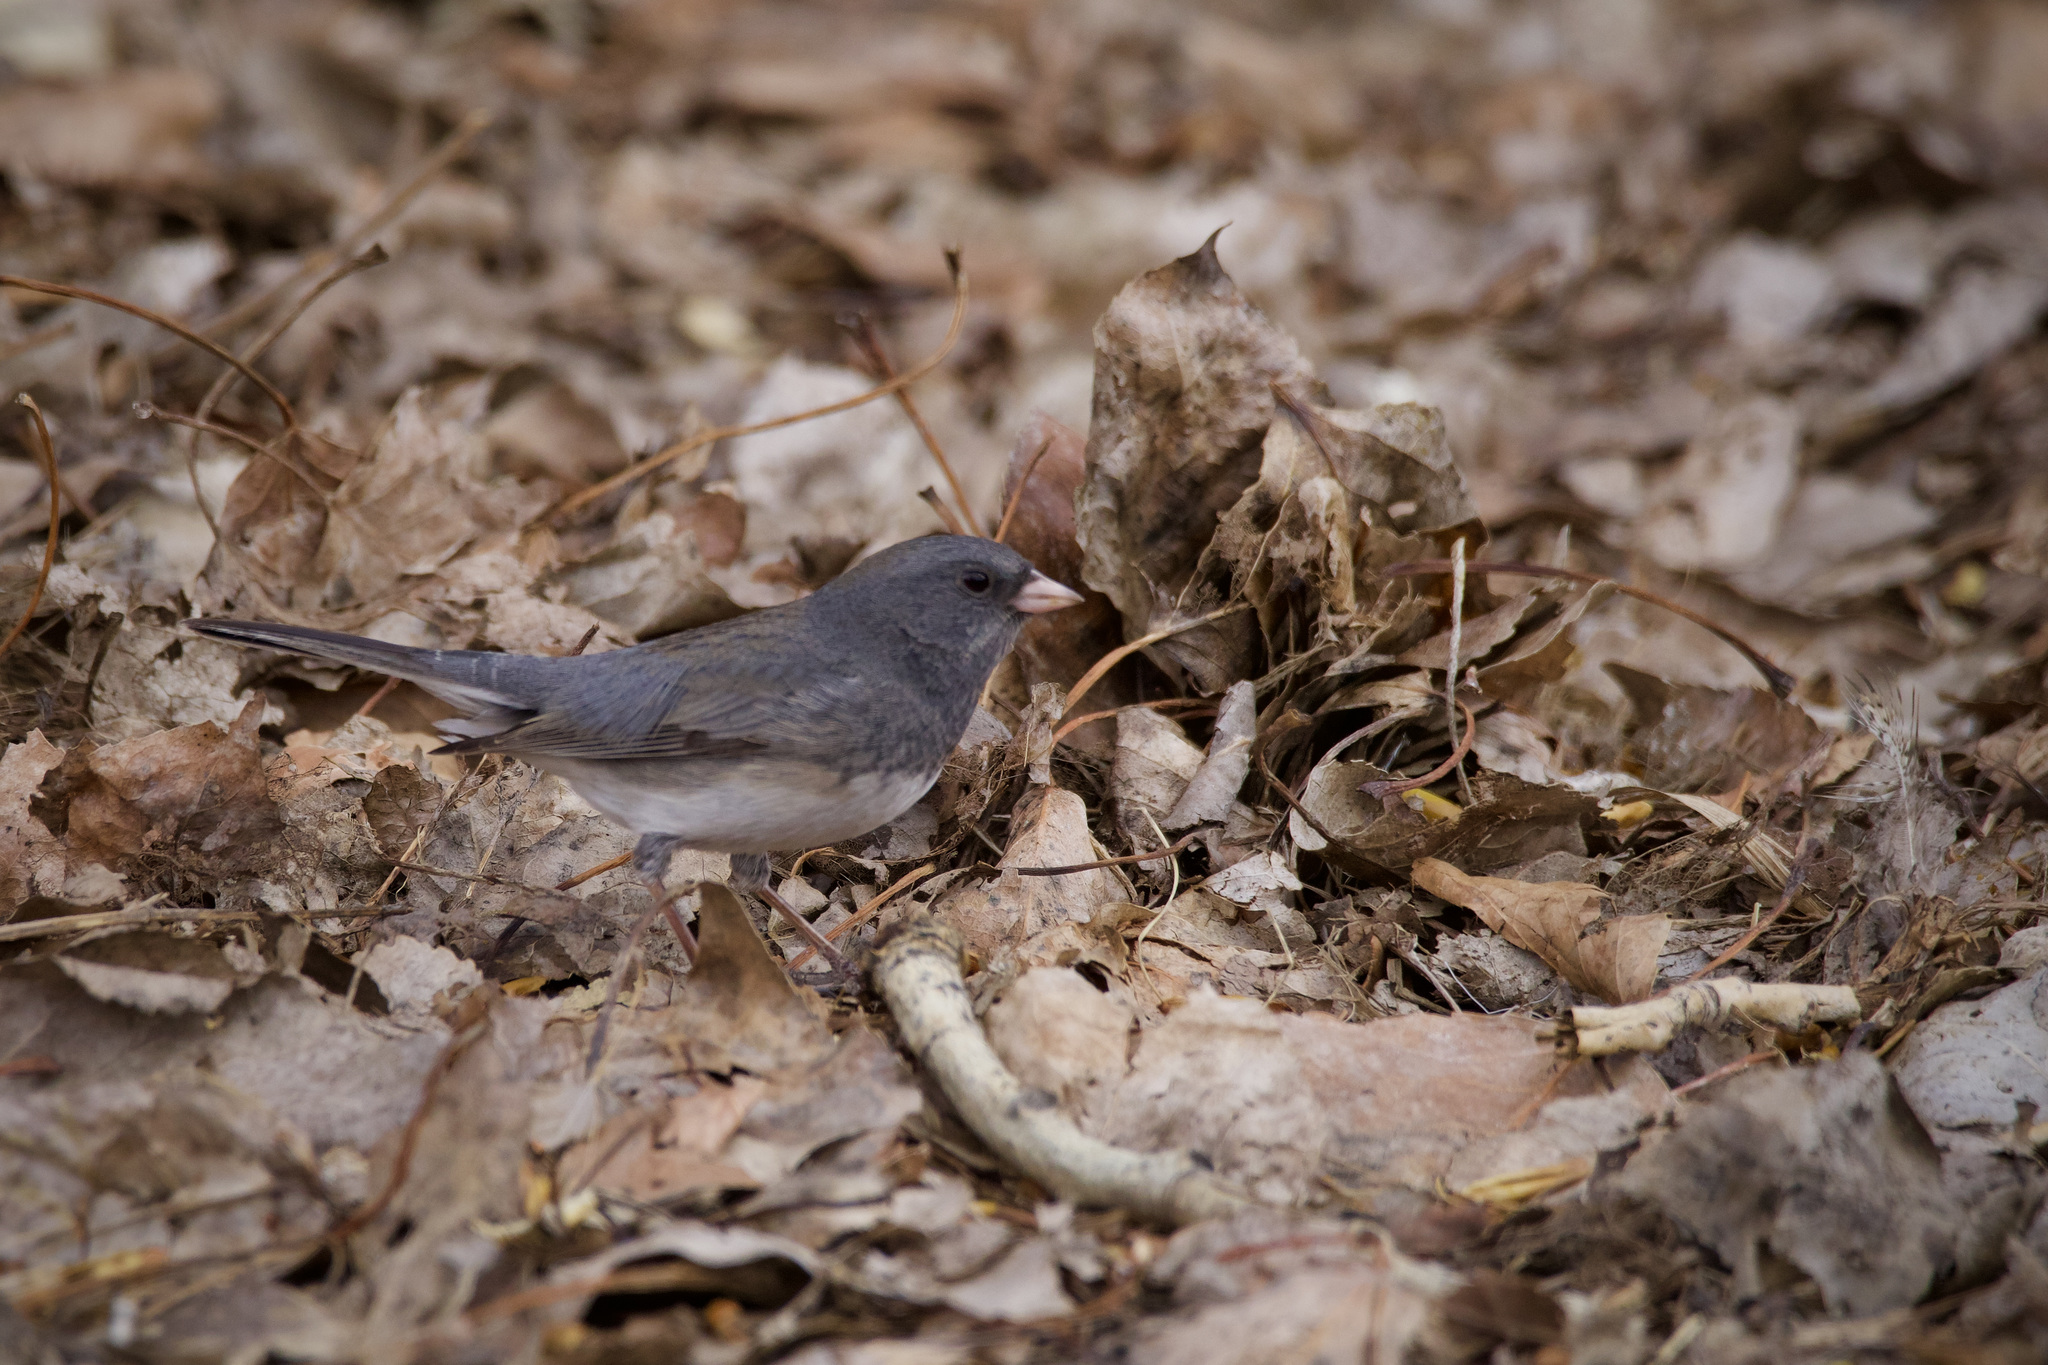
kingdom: Animalia
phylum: Chordata
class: Aves
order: Passeriformes
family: Passerellidae
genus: Junco
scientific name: Junco hyemalis
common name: Dark-eyed junco
